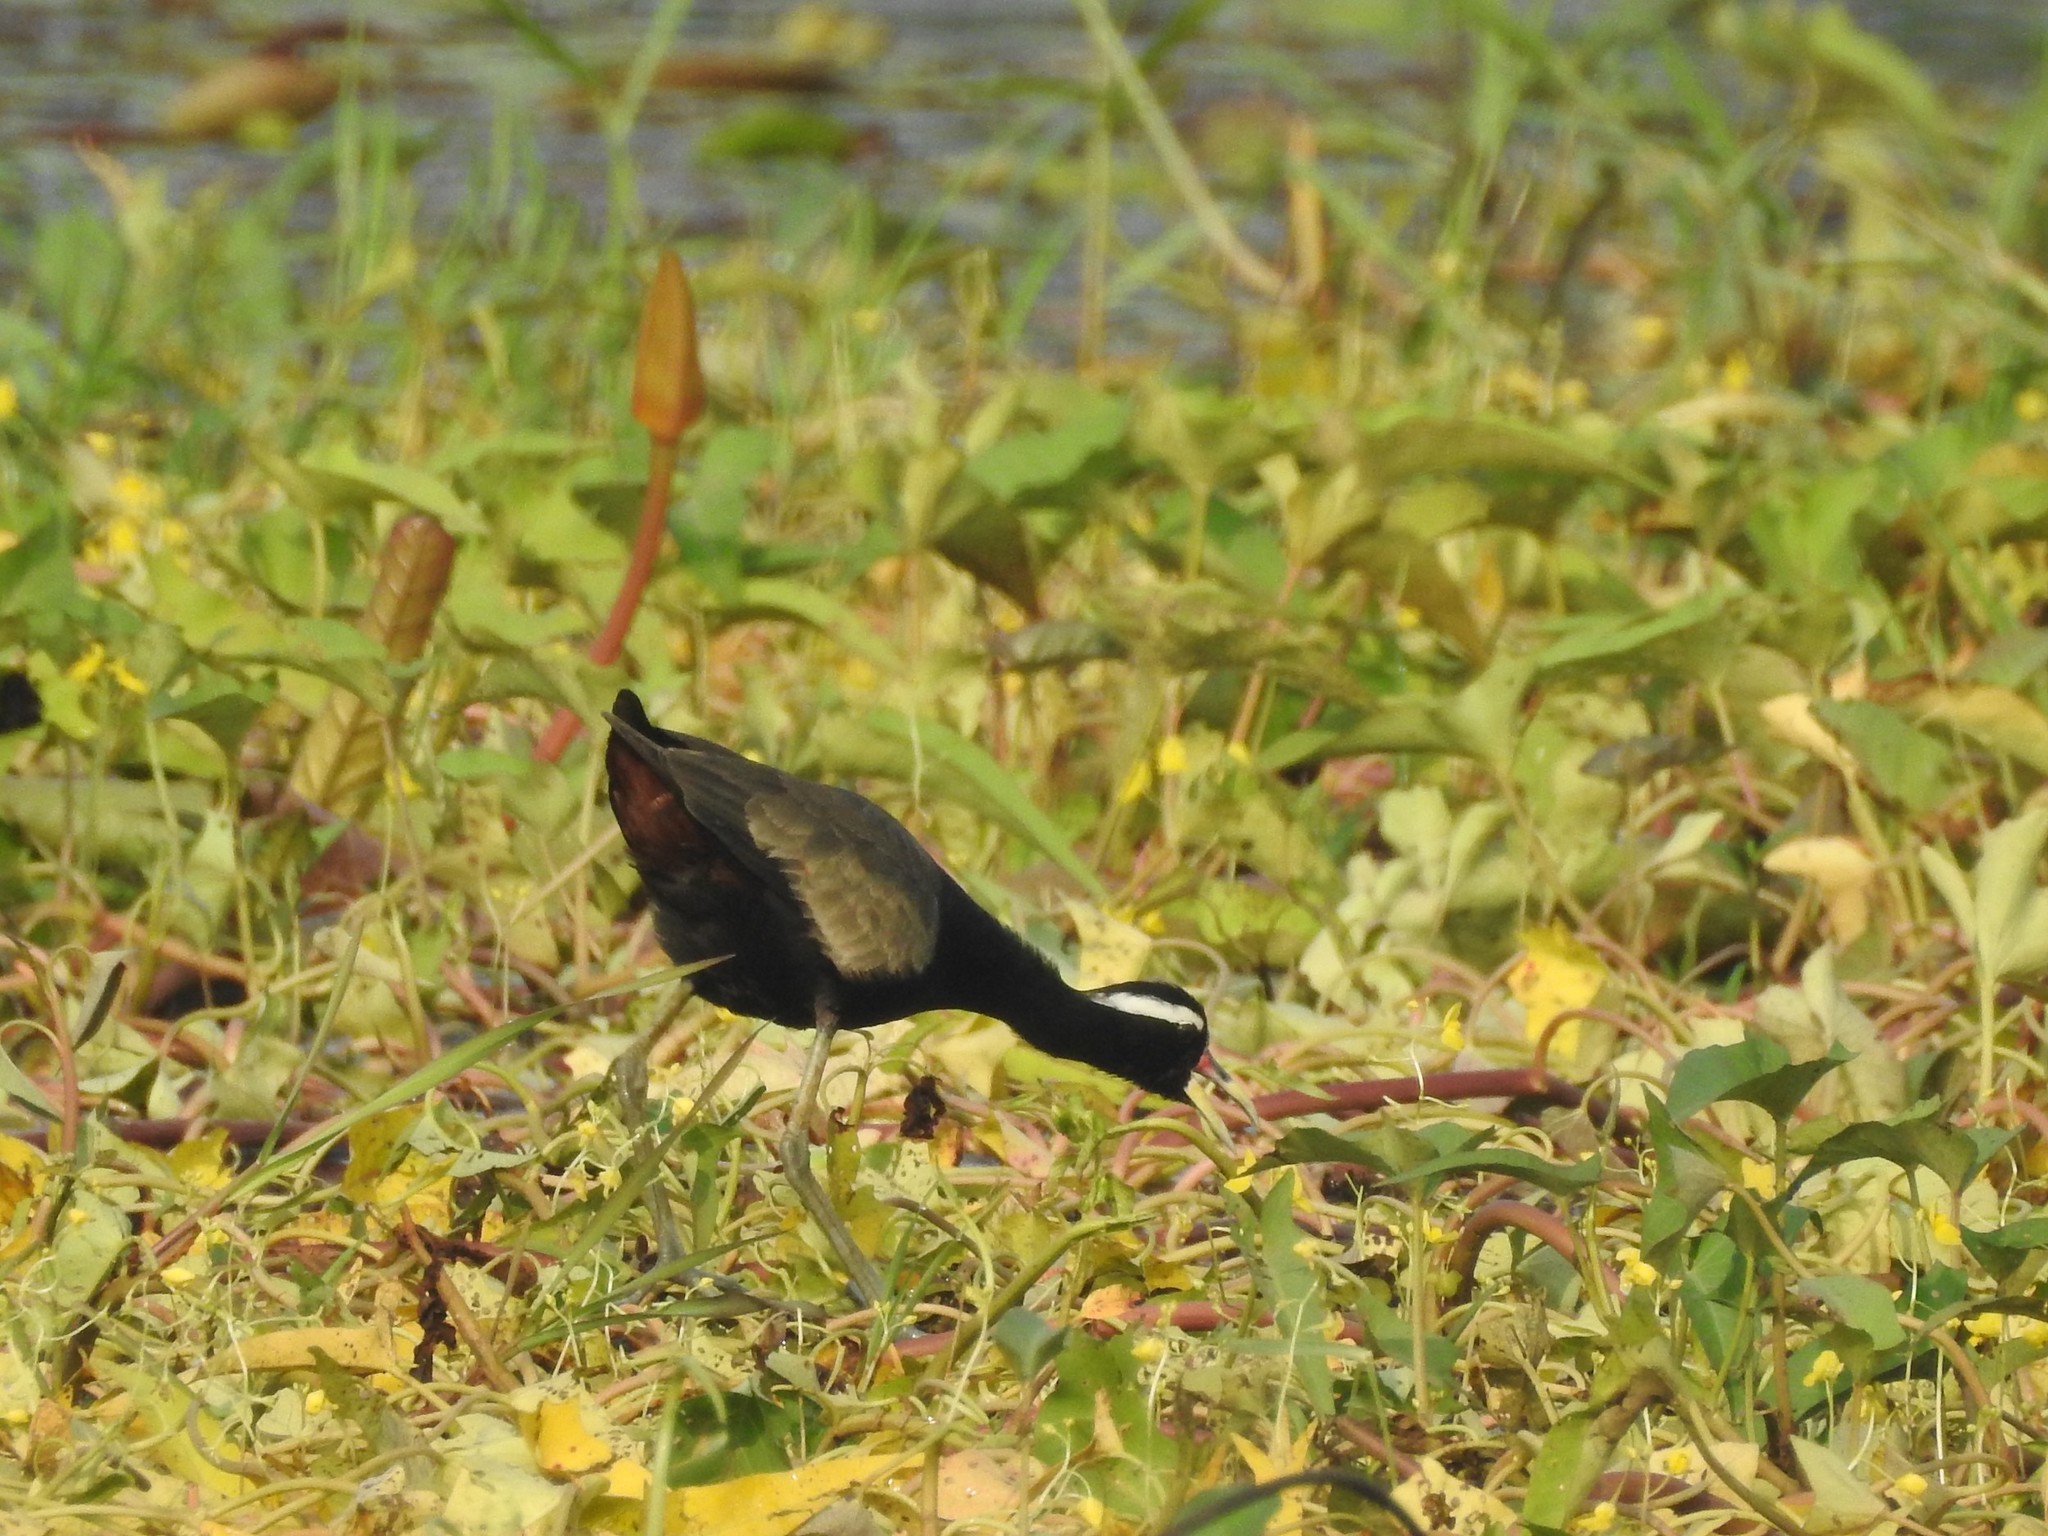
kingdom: Animalia
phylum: Chordata
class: Aves
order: Charadriiformes
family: Jacanidae
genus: Metopidius
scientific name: Metopidius indicus
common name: Bronze-winged jacana
